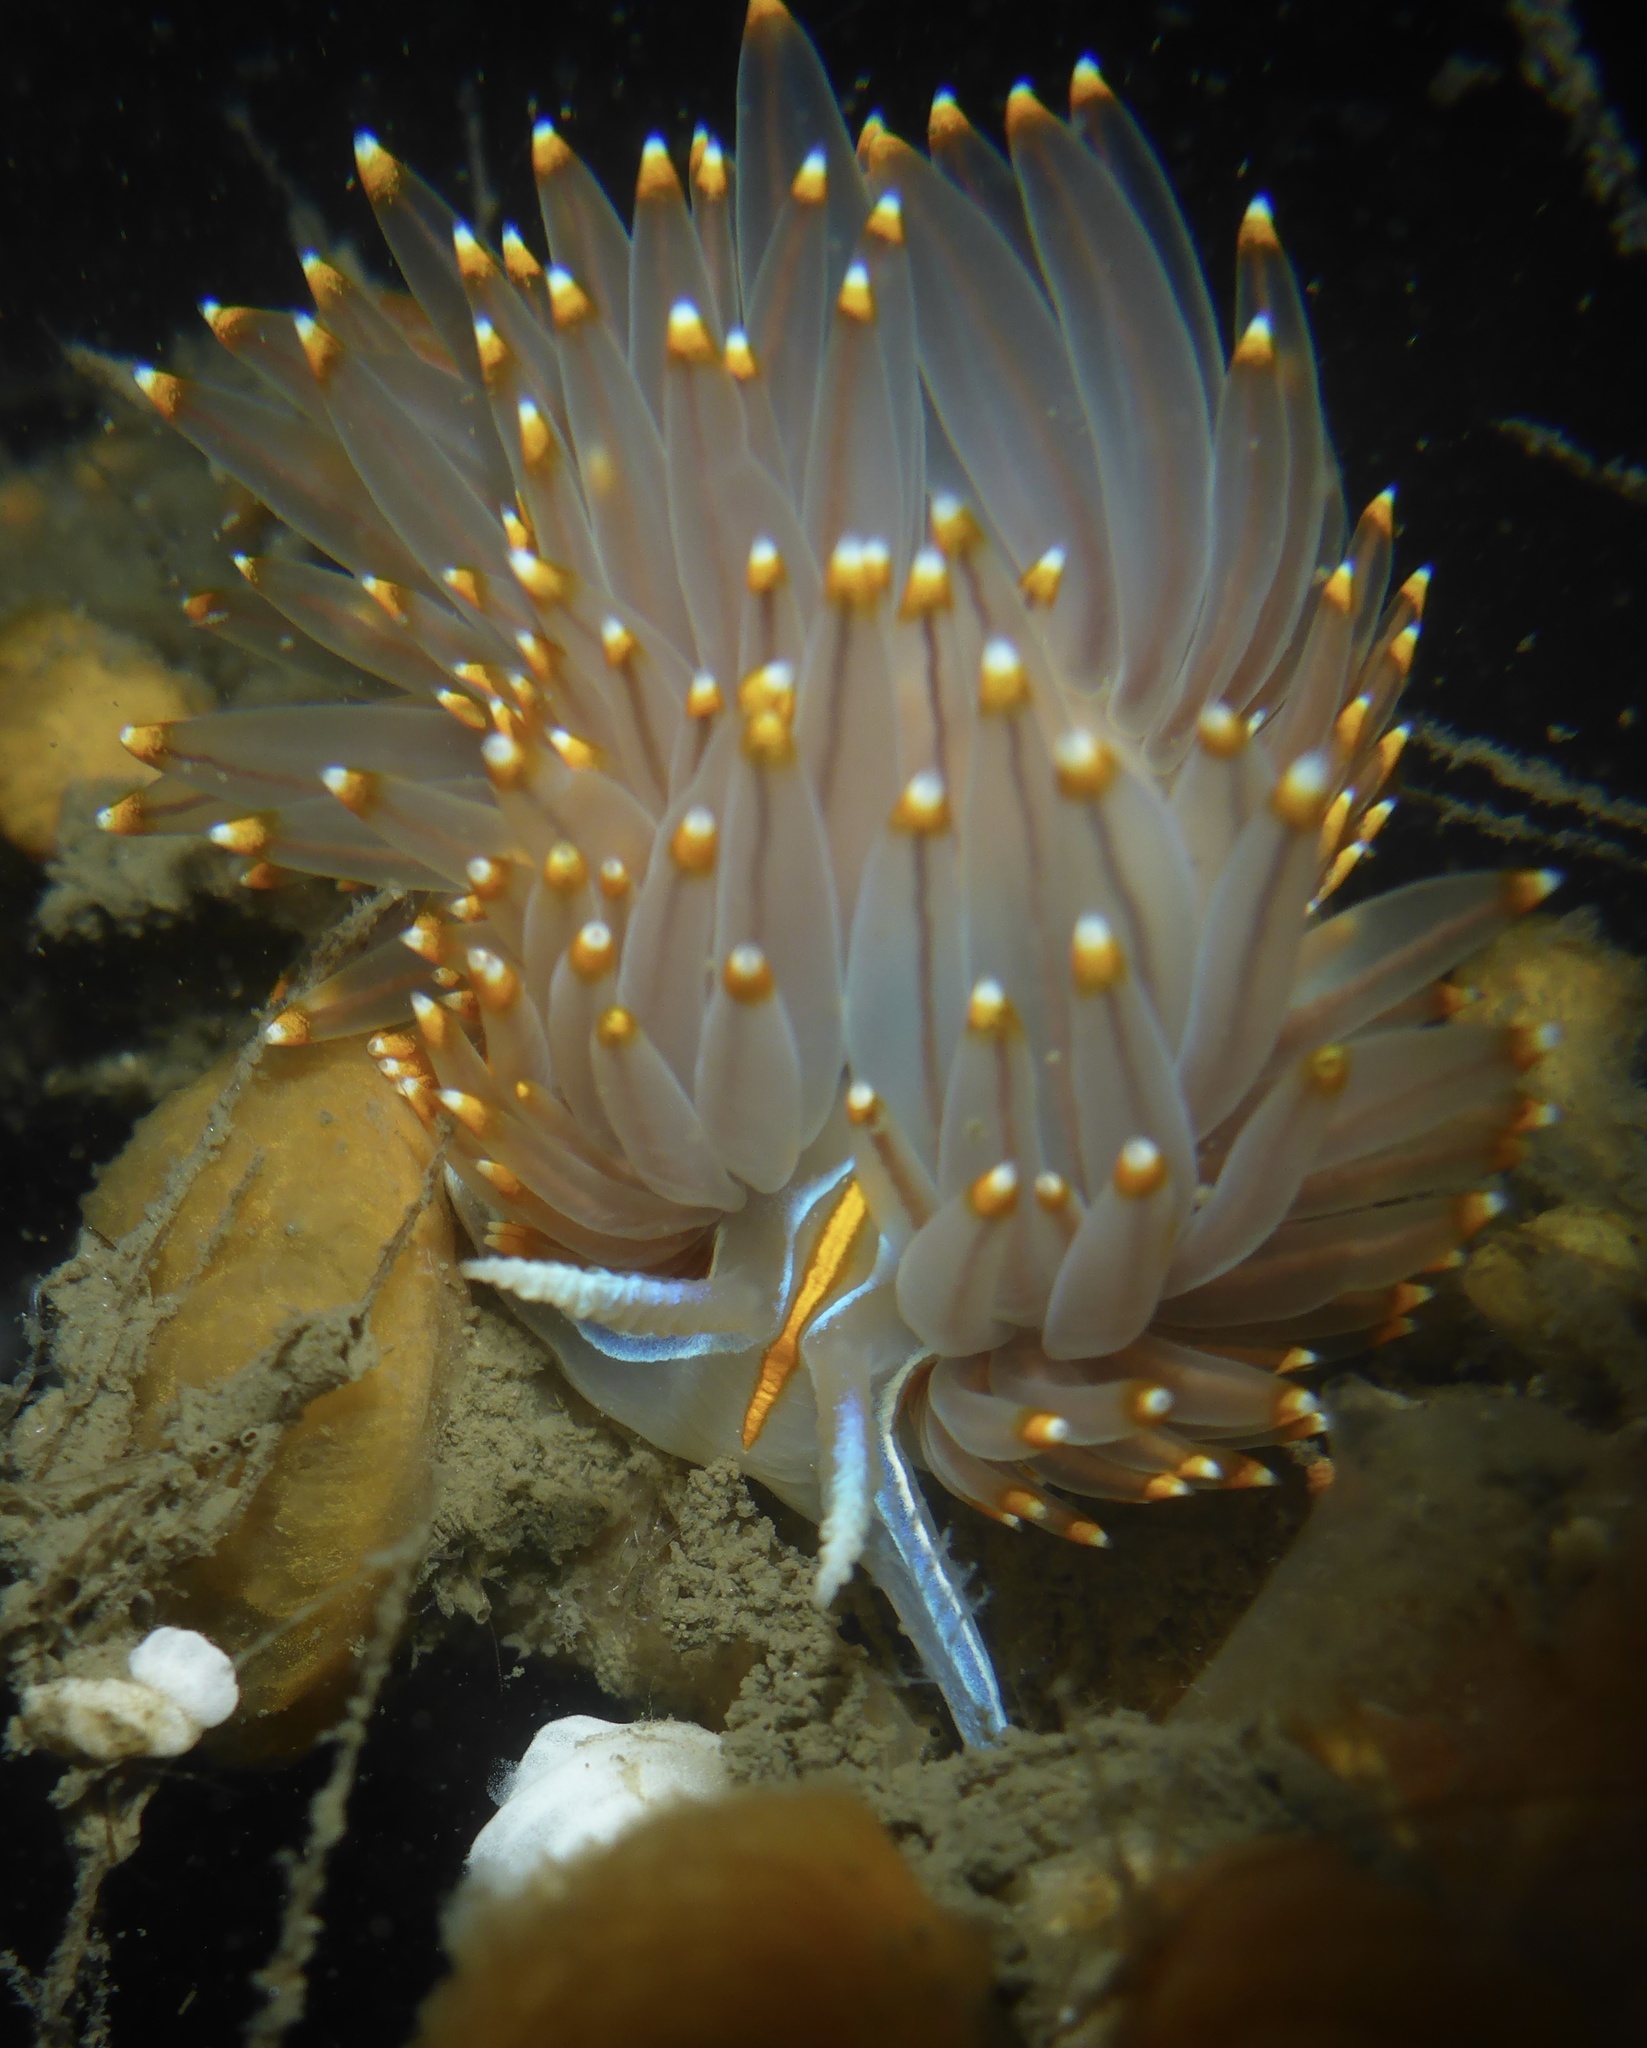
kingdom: Animalia
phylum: Mollusca
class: Gastropoda
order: Nudibranchia
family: Myrrhinidae
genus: Hermissenda
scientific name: Hermissenda opalescens
